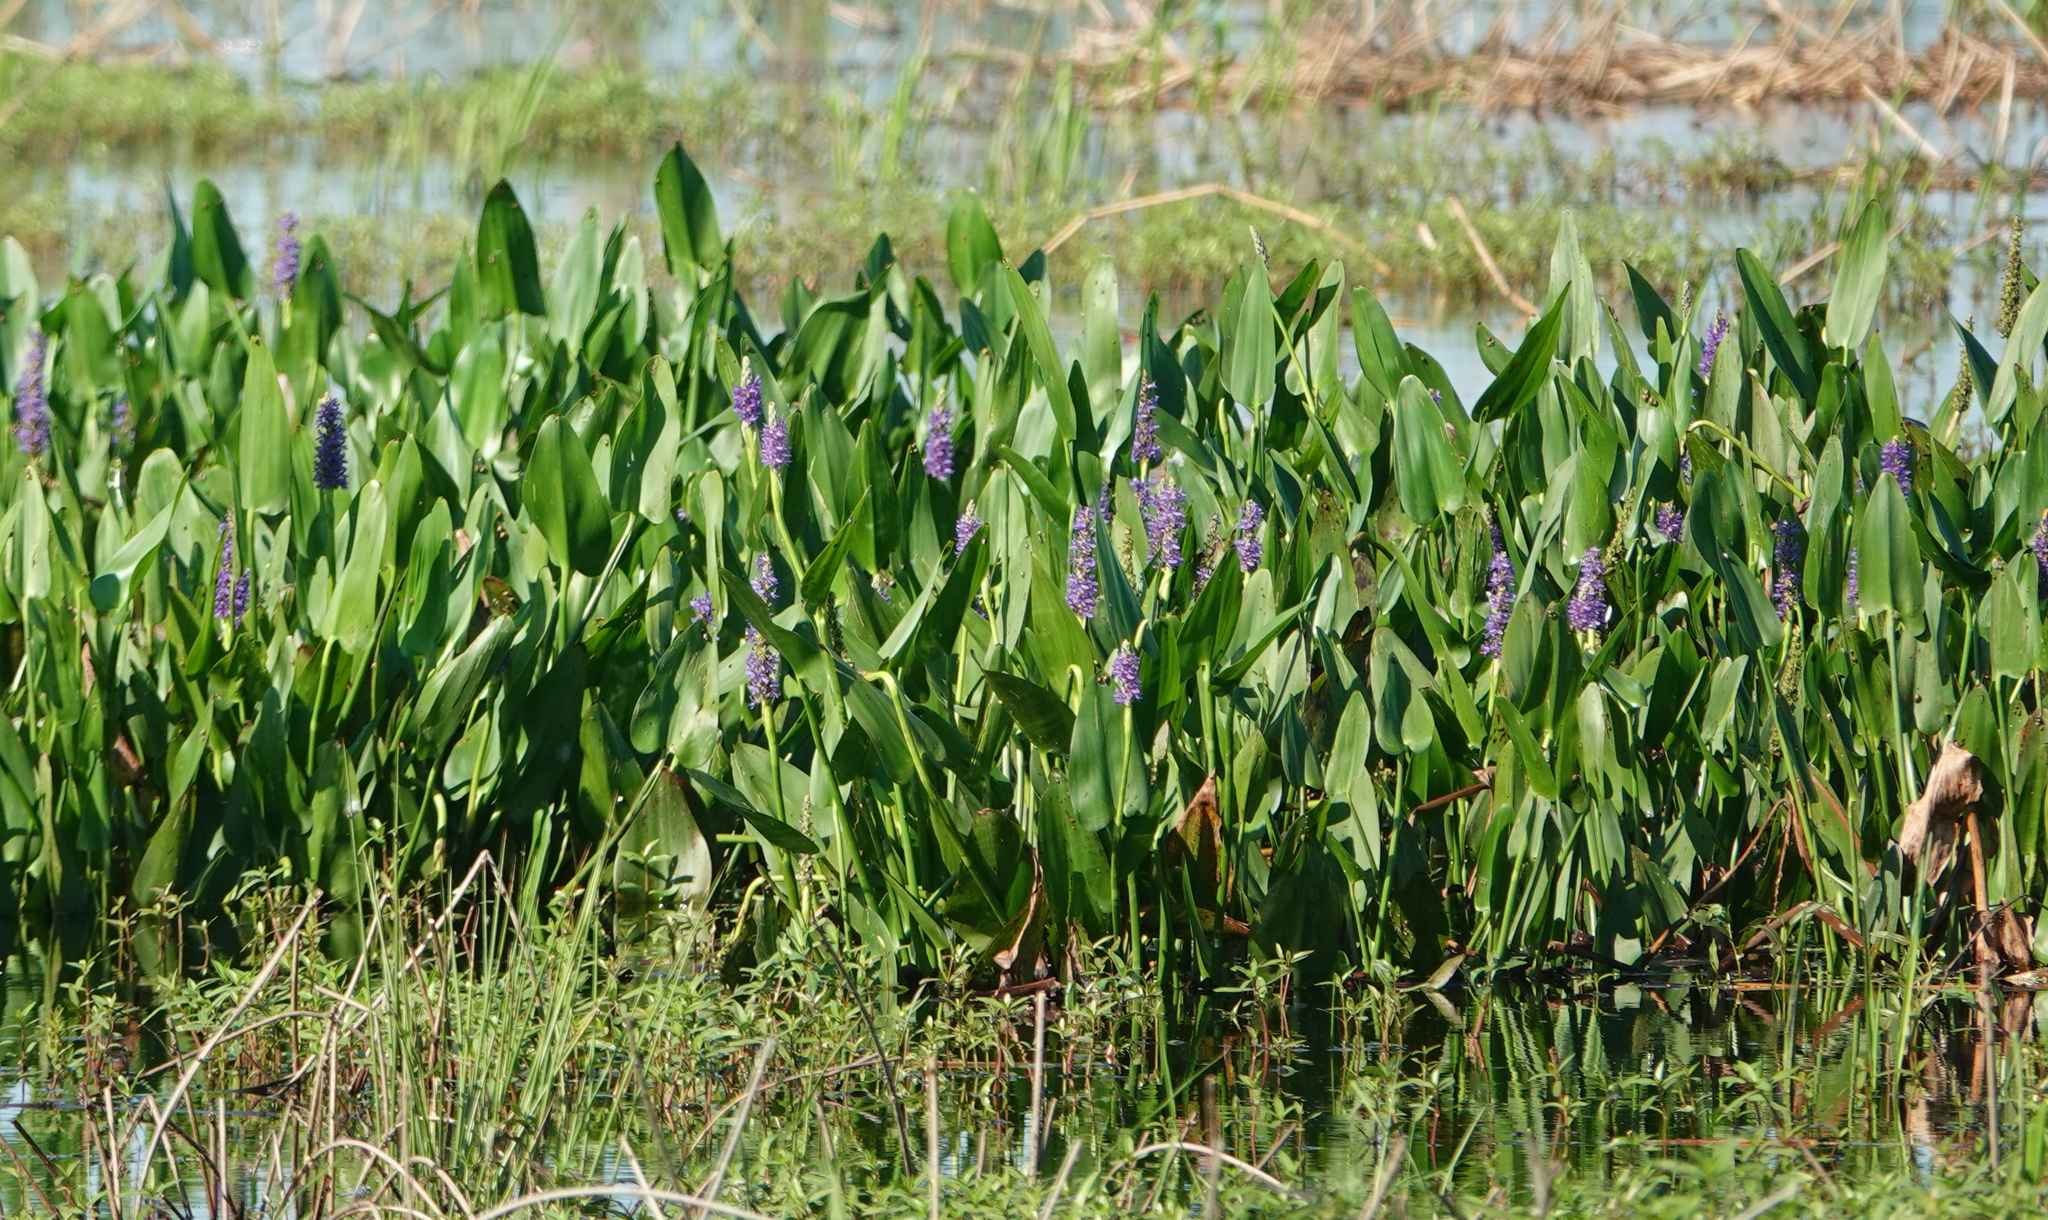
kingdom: Plantae
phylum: Tracheophyta
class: Liliopsida
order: Commelinales
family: Pontederiaceae
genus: Pontederia
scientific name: Pontederia cordata
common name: Pickerelweed
